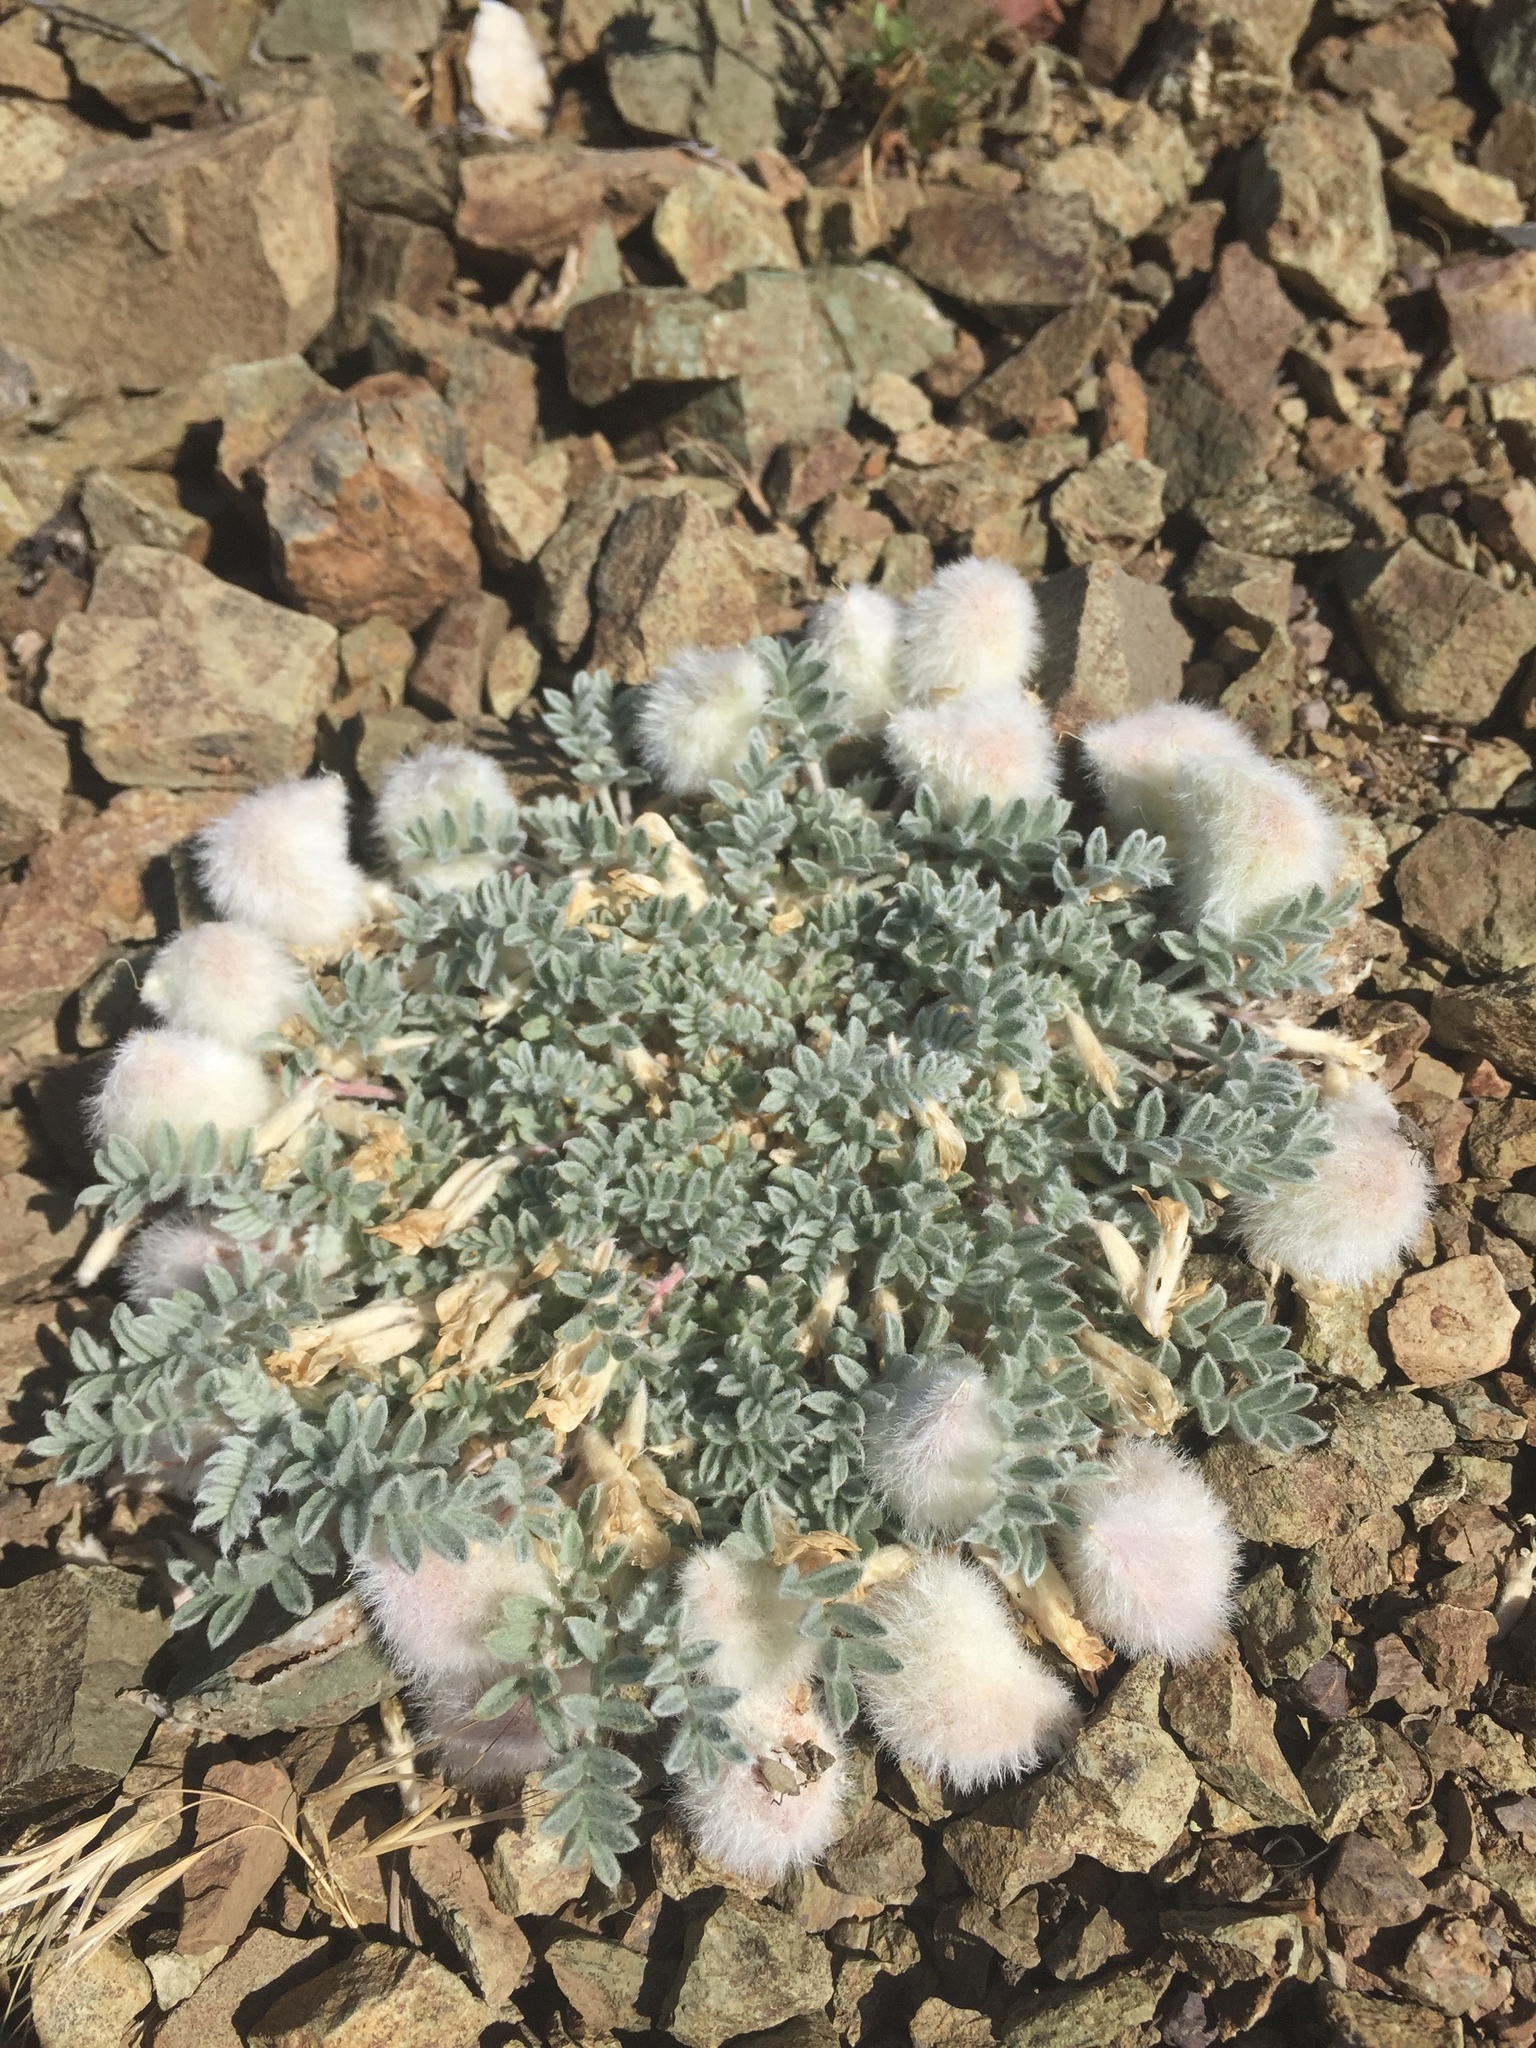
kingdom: Plantae
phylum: Tracheophyta
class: Magnoliopsida
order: Fabales
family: Fabaceae
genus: Astragalus
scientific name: Astragalus purshii
